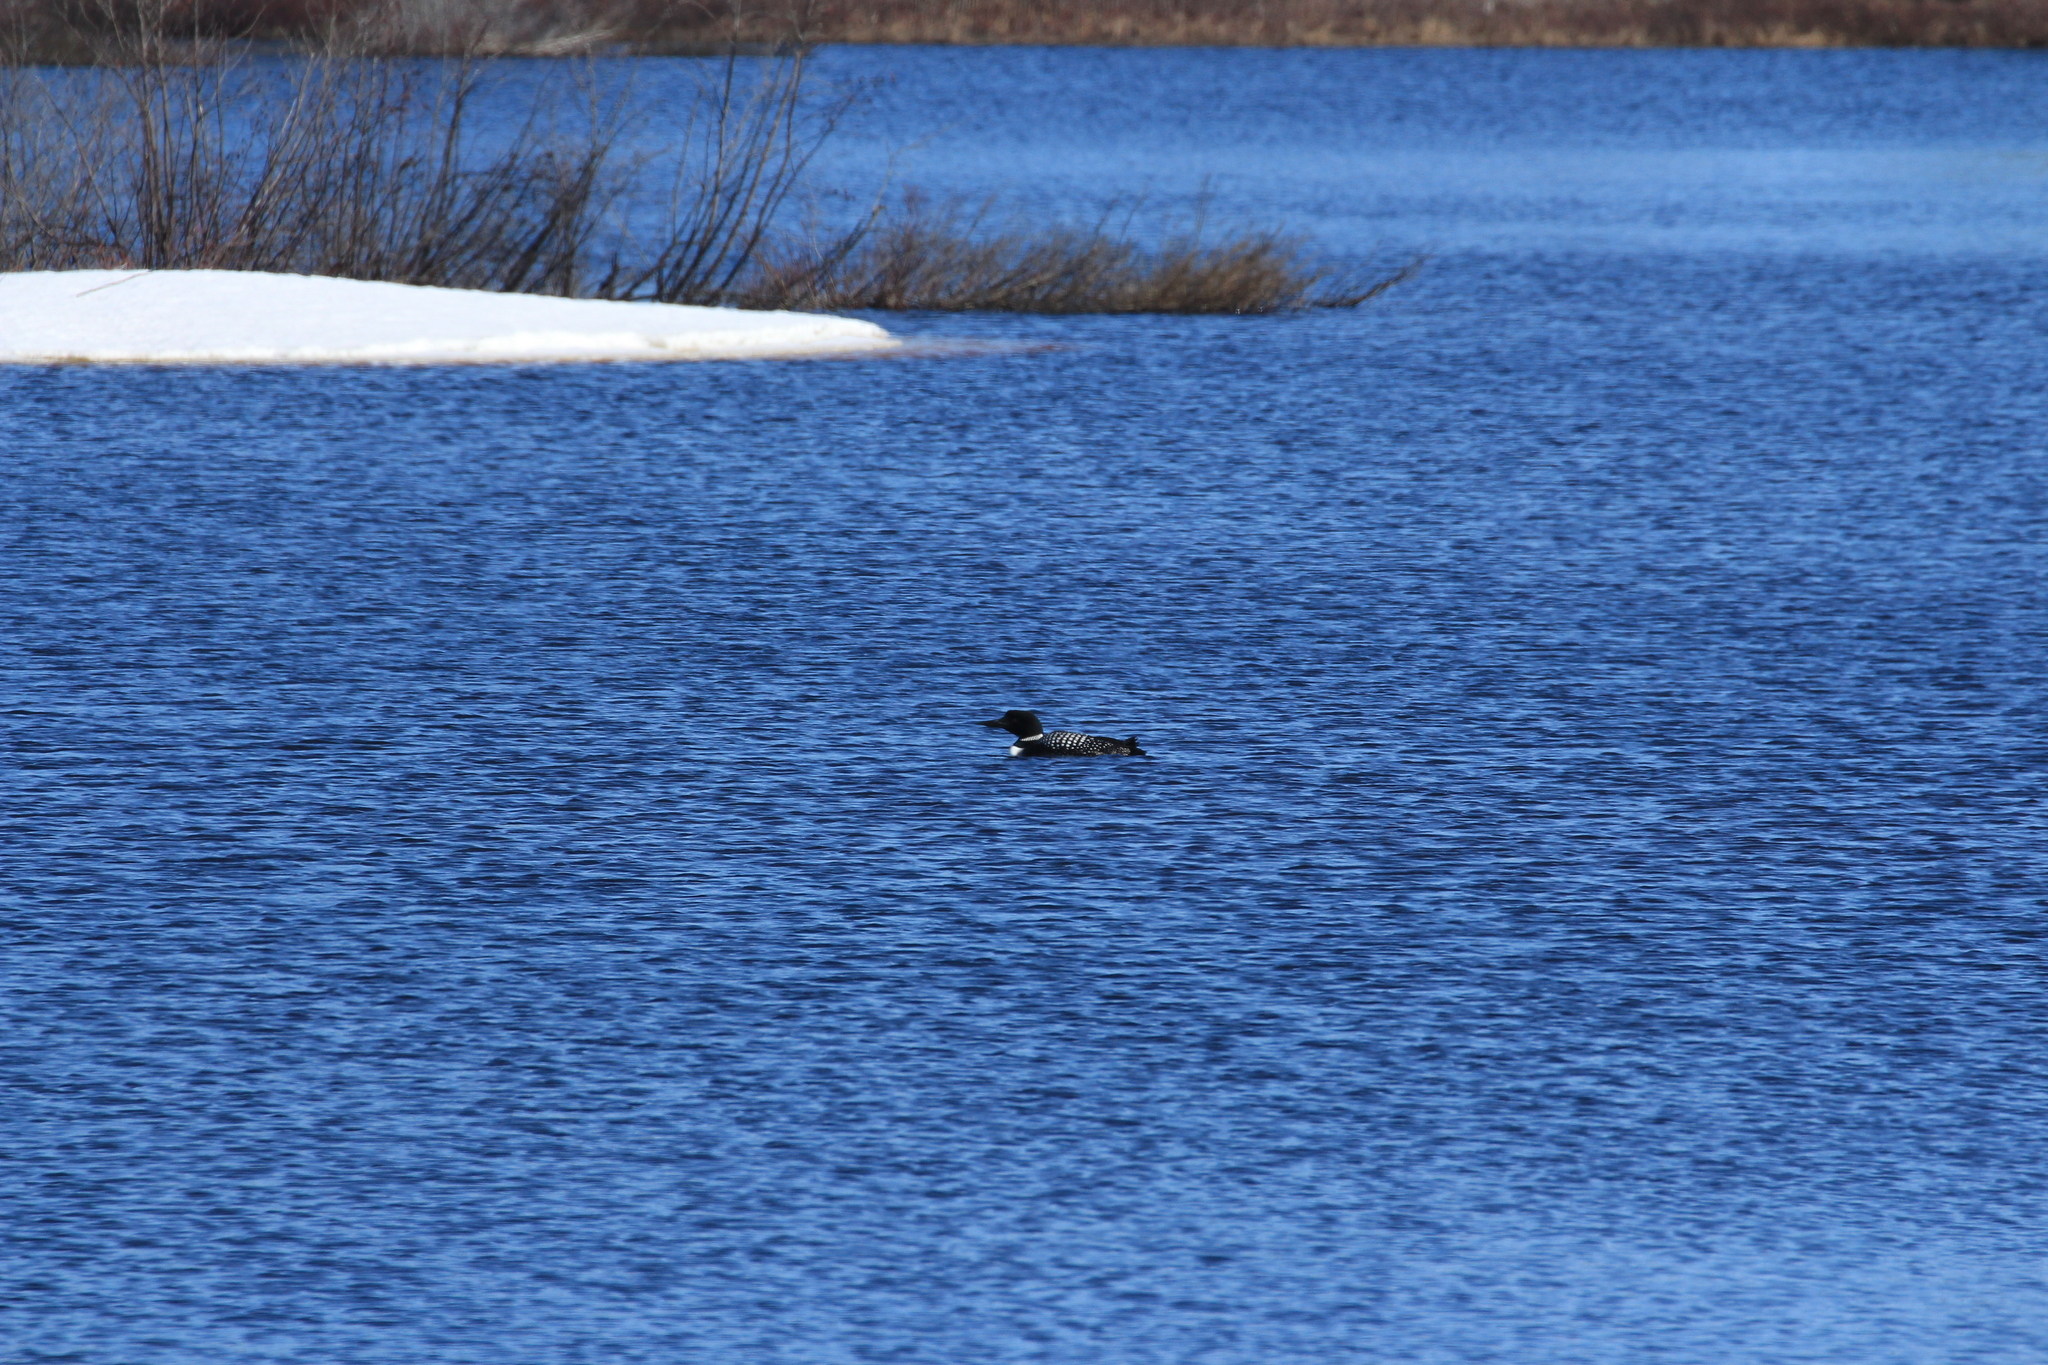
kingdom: Animalia
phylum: Chordata
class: Aves
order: Gaviiformes
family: Gaviidae
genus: Gavia
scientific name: Gavia immer
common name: Common loon
